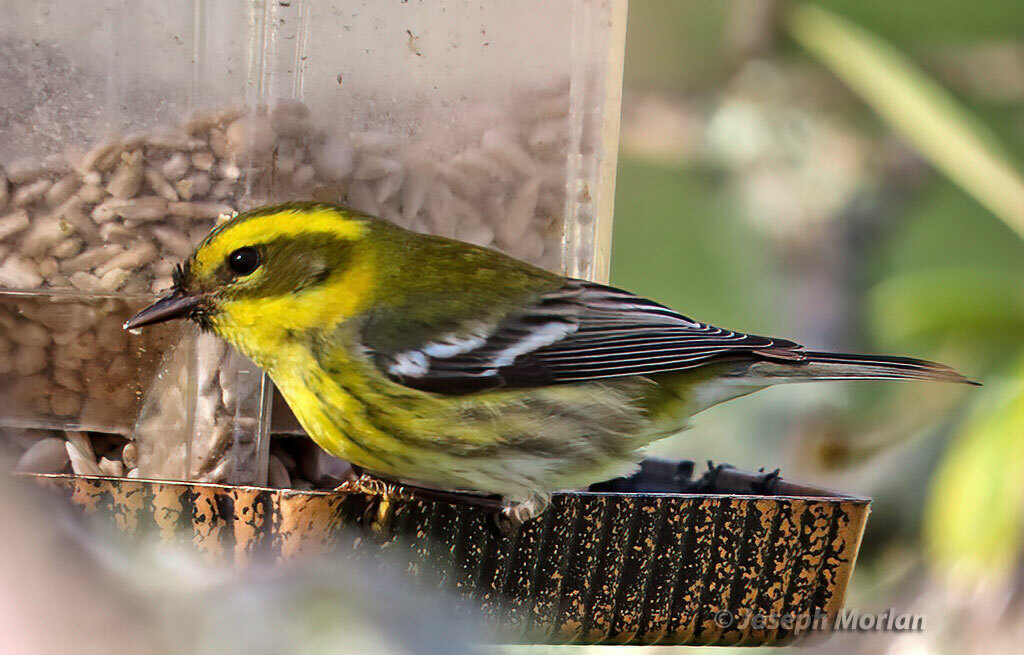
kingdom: Animalia
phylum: Chordata
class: Aves
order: Passeriformes
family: Parulidae
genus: Setophaga
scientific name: Setophaga townsendi
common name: Townsend's warbler
